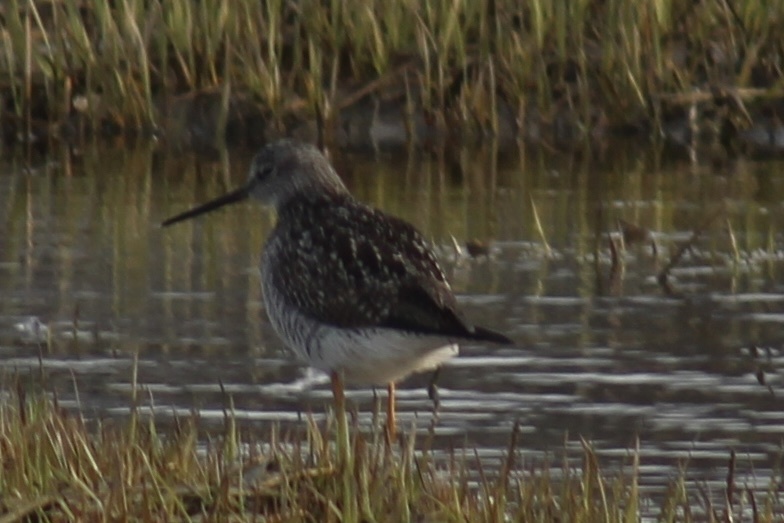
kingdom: Animalia
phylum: Chordata
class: Aves
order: Charadriiformes
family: Scolopacidae
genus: Tringa
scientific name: Tringa melanoleuca
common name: Greater yellowlegs
